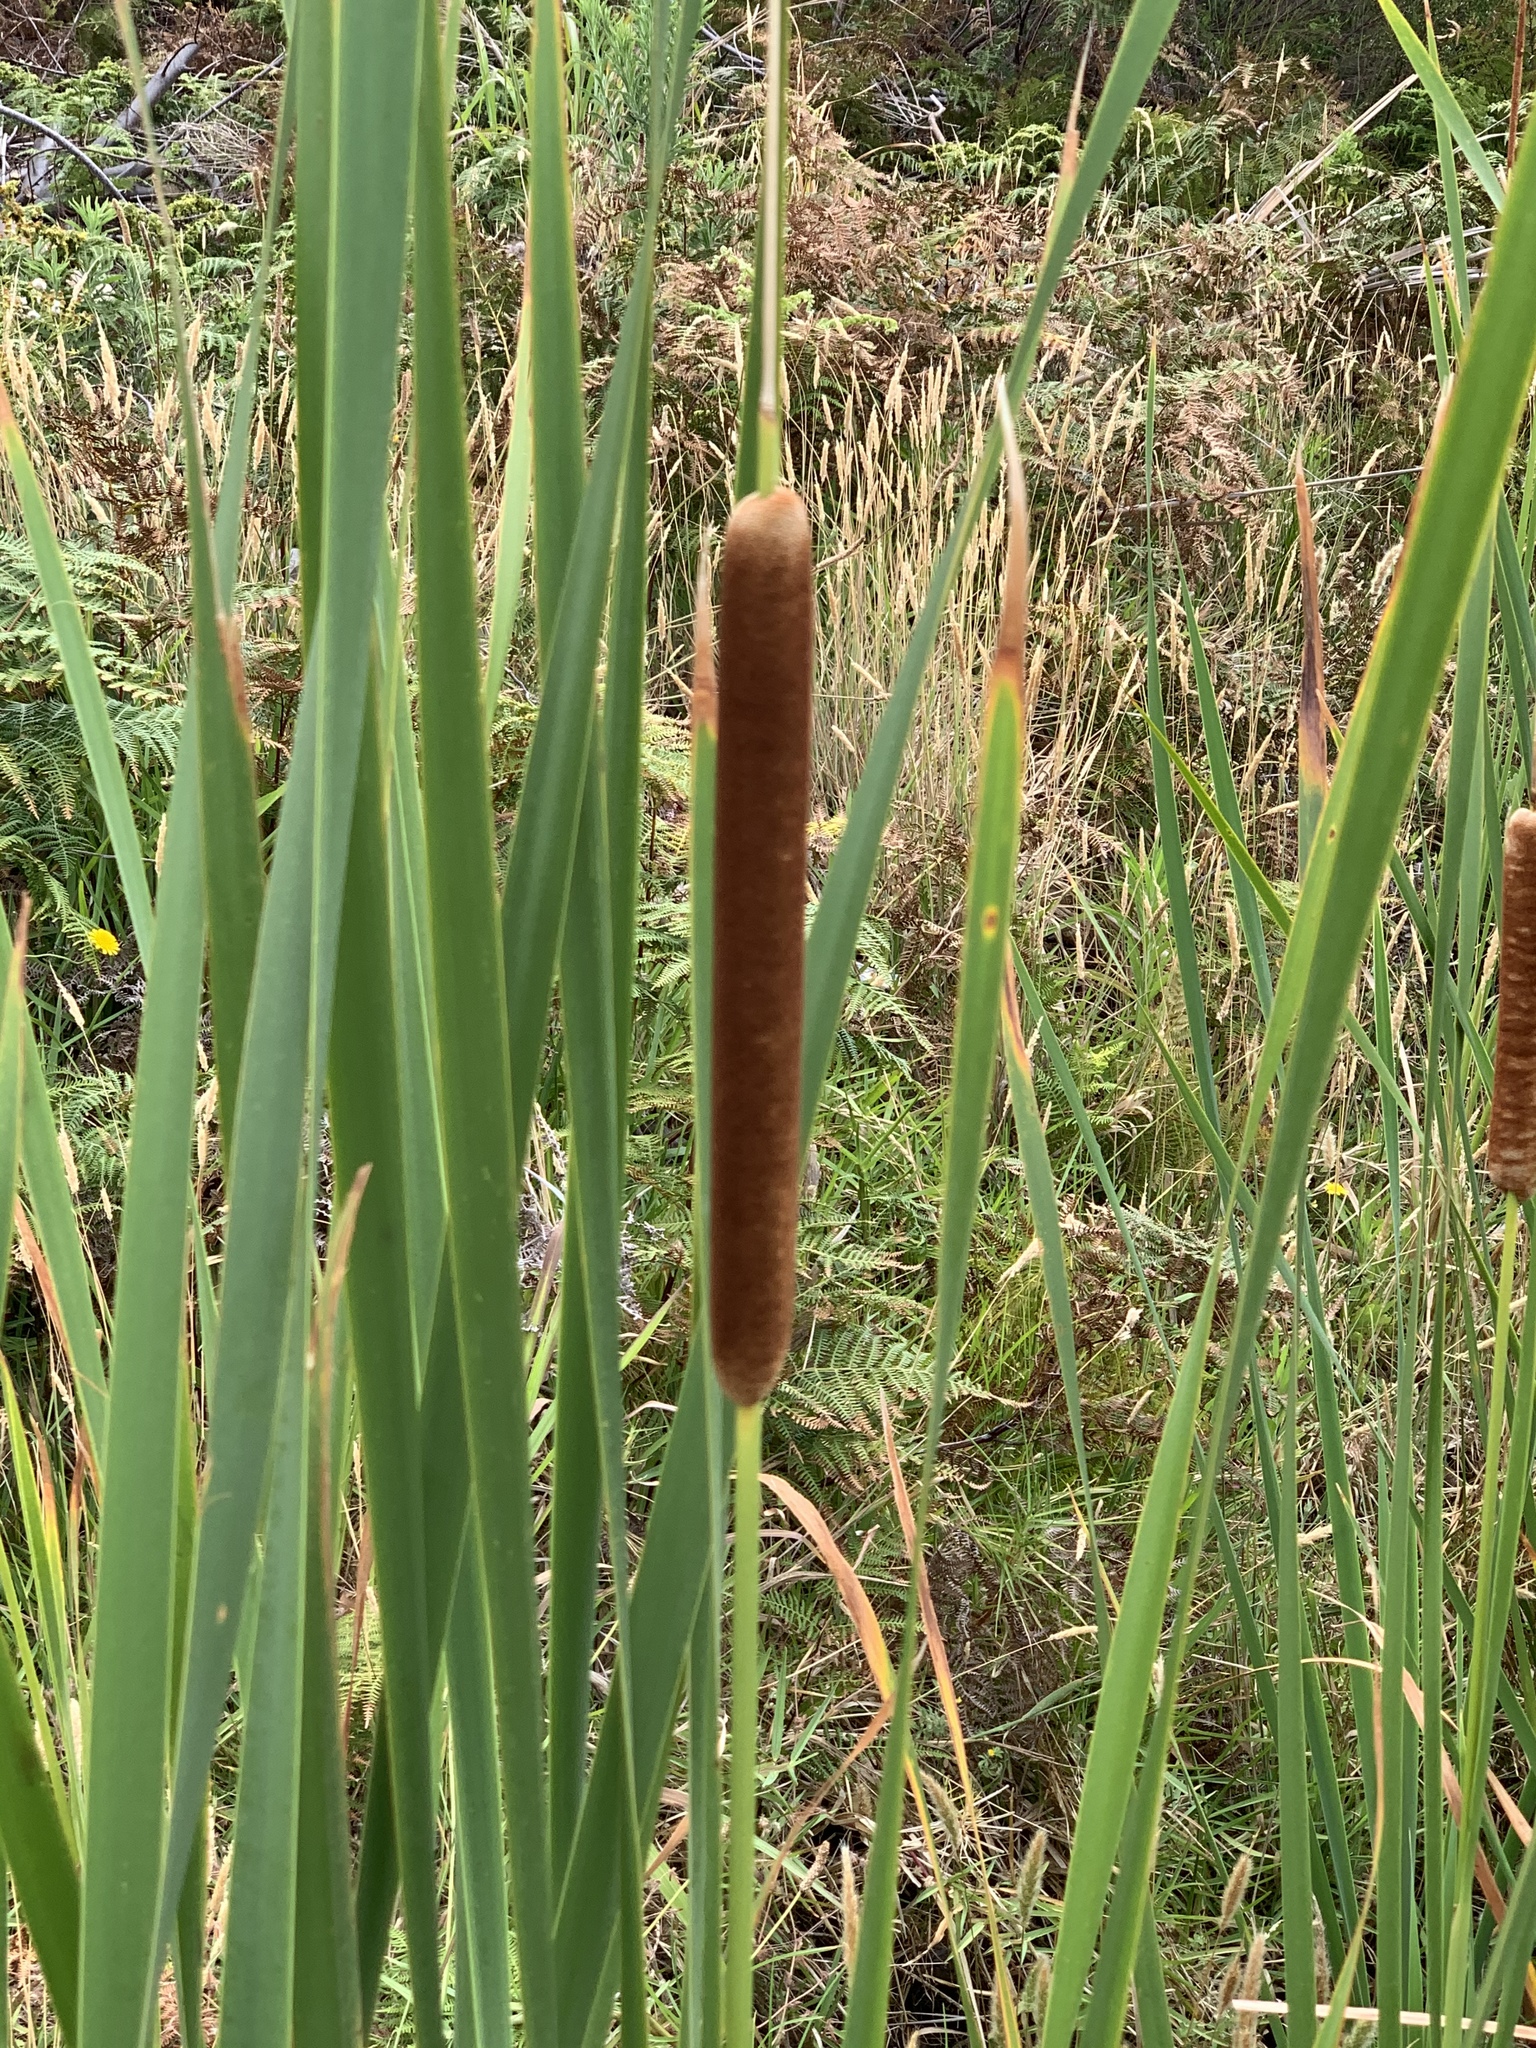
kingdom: Plantae
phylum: Tracheophyta
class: Liliopsida
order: Poales
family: Typhaceae
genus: Typha
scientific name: Typha capensis
